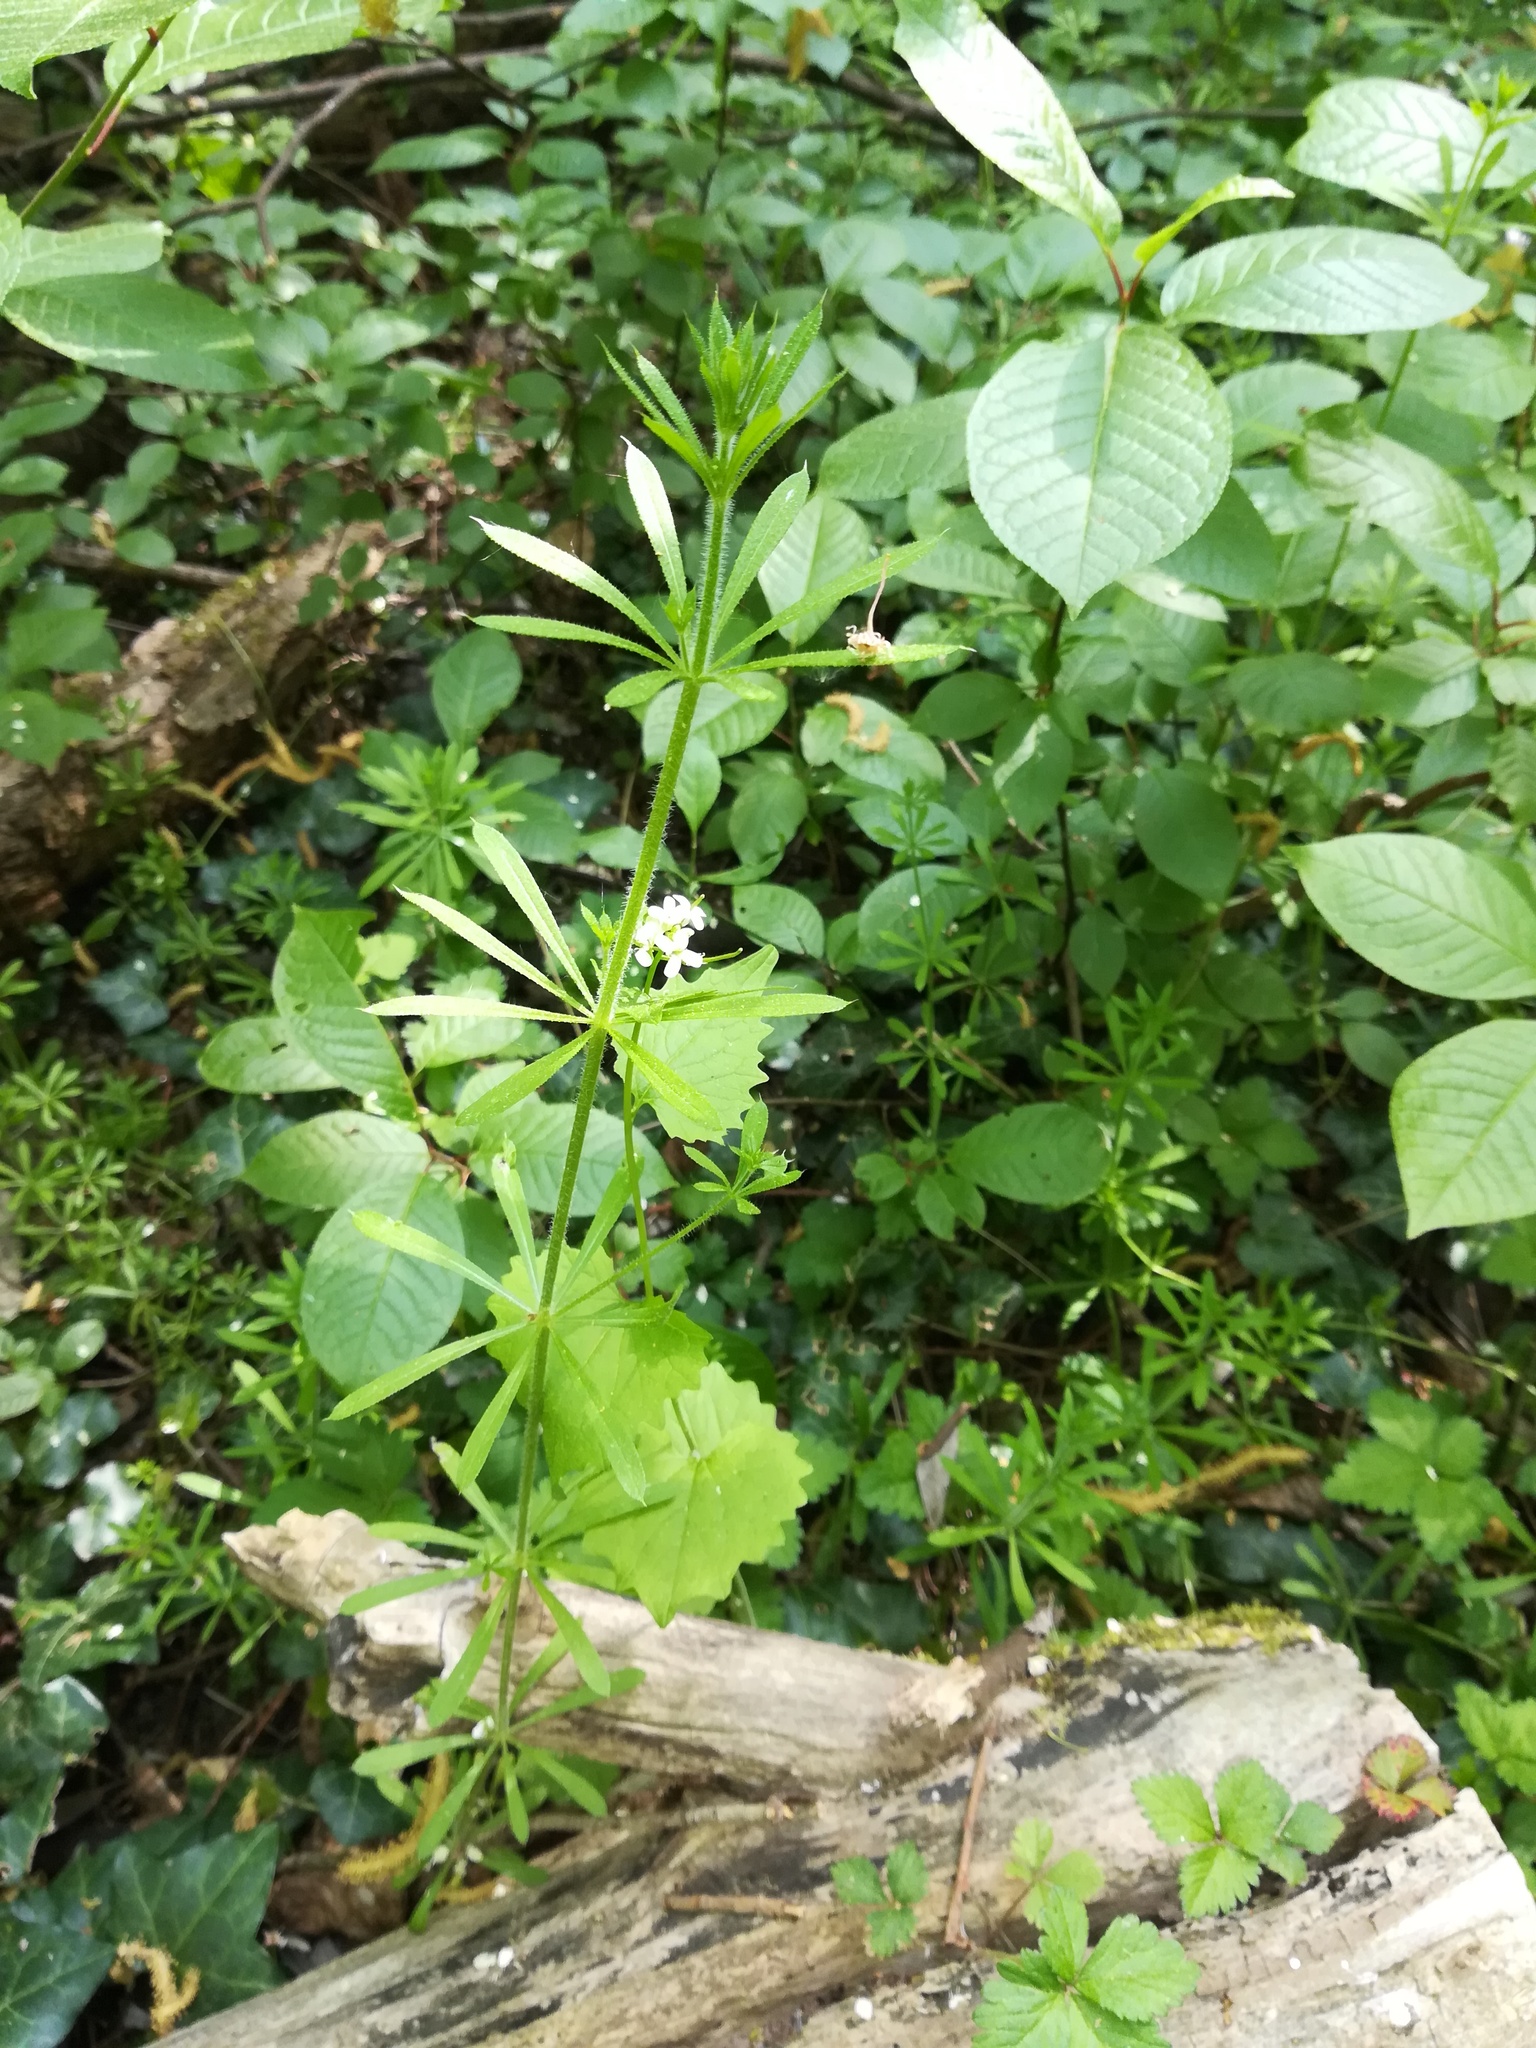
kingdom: Plantae
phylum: Tracheophyta
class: Magnoliopsida
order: Gentianales
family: Rubiaceae
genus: Galium
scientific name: Galium aparine
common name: Cleavers
